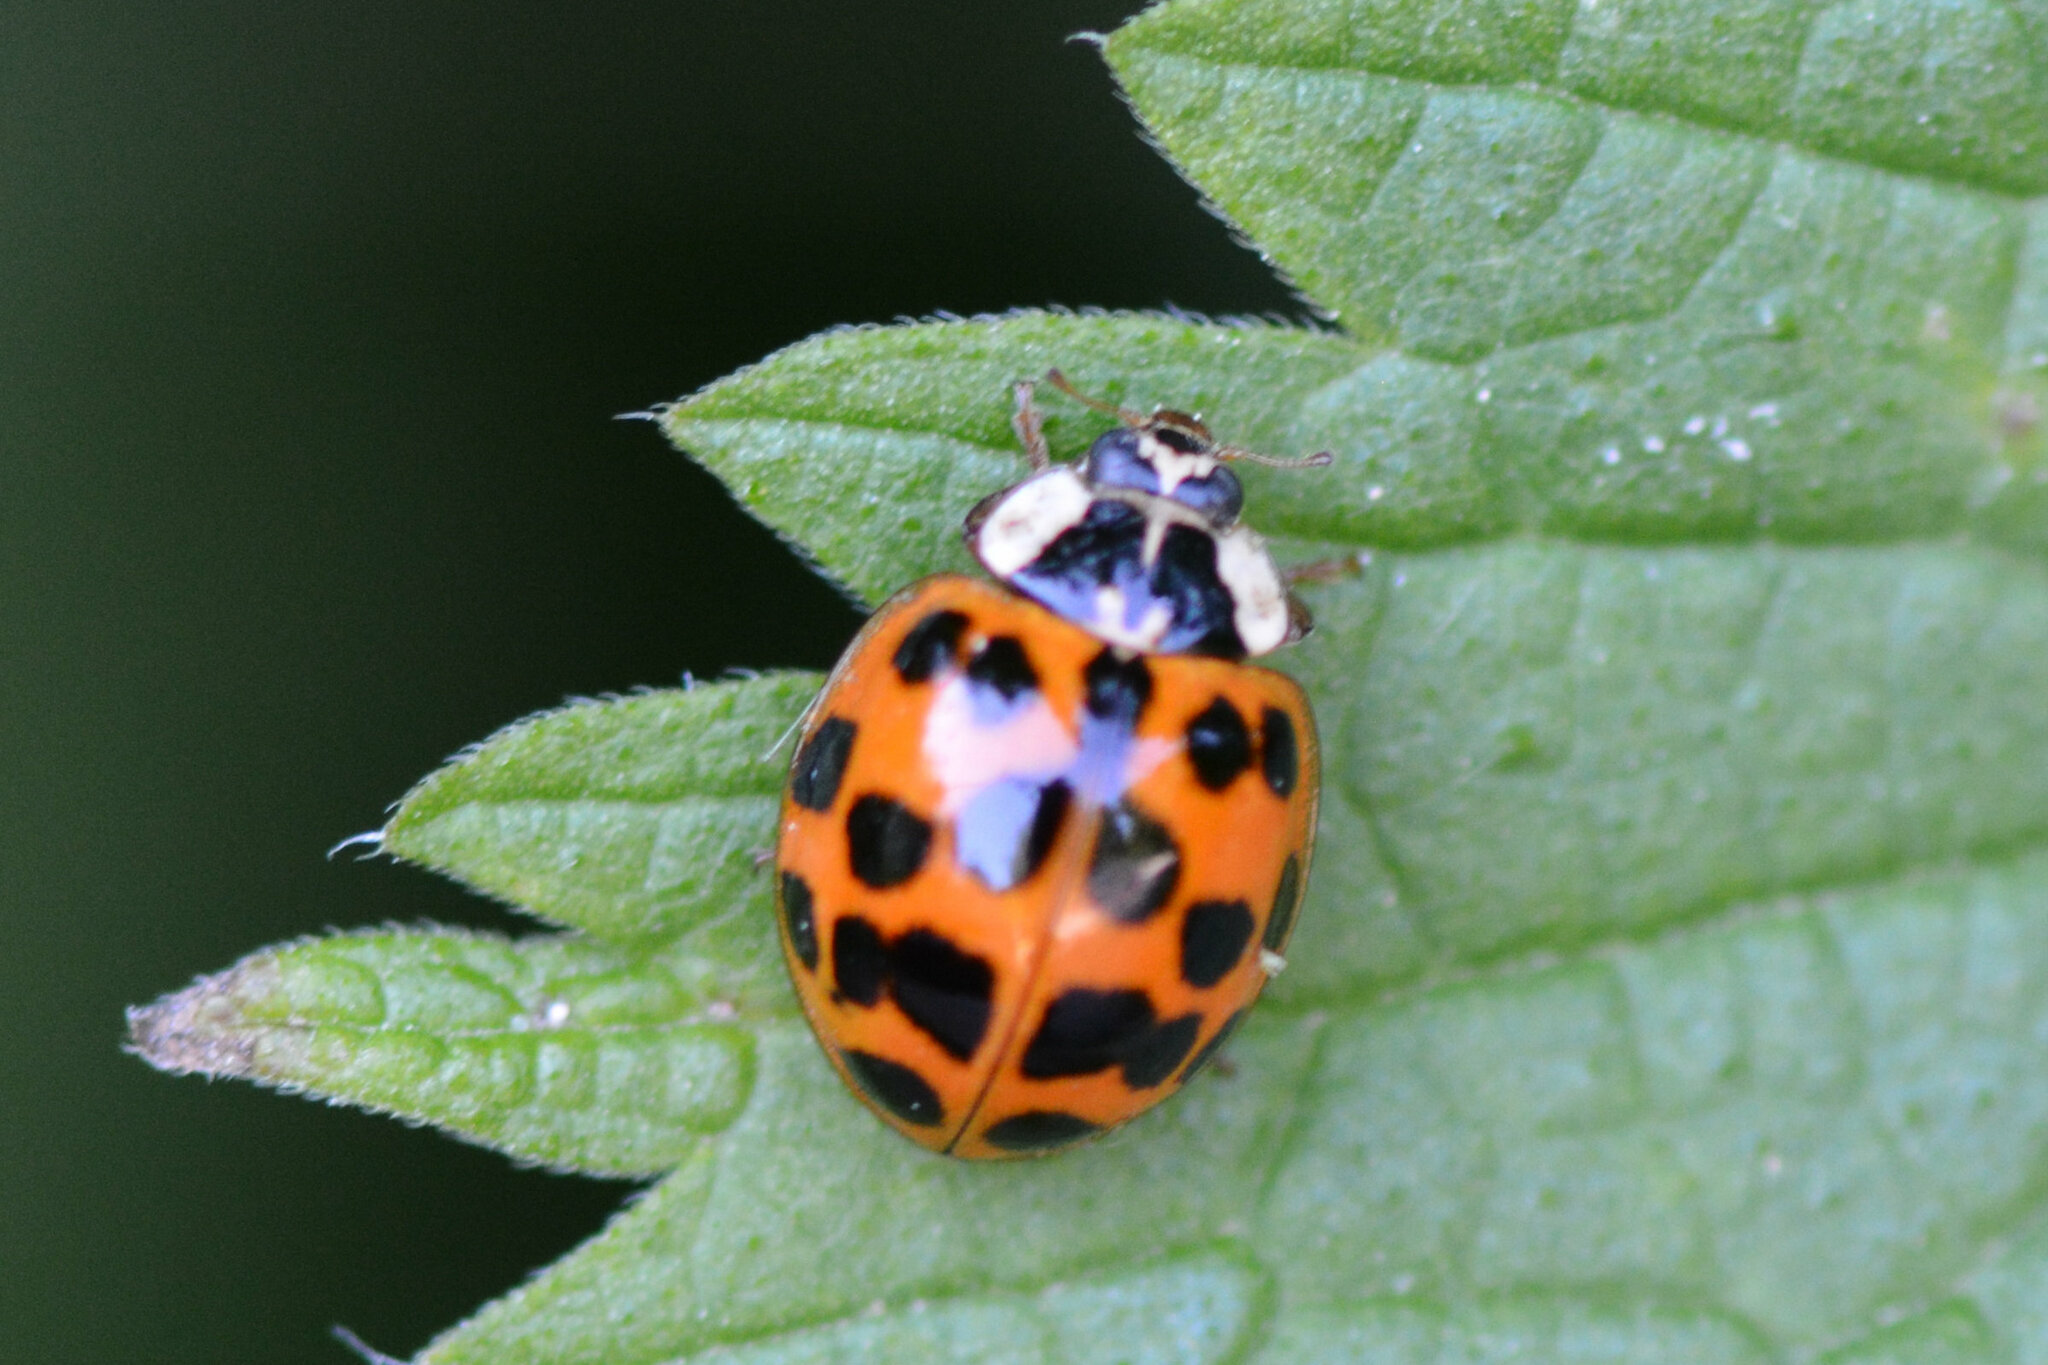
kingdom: Animalia
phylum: Arthropoda
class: Insecta
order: Coleoptera
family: Coccinellidae
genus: Harmonia
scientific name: Harmonia axyridis
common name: Harlequin ladybird
